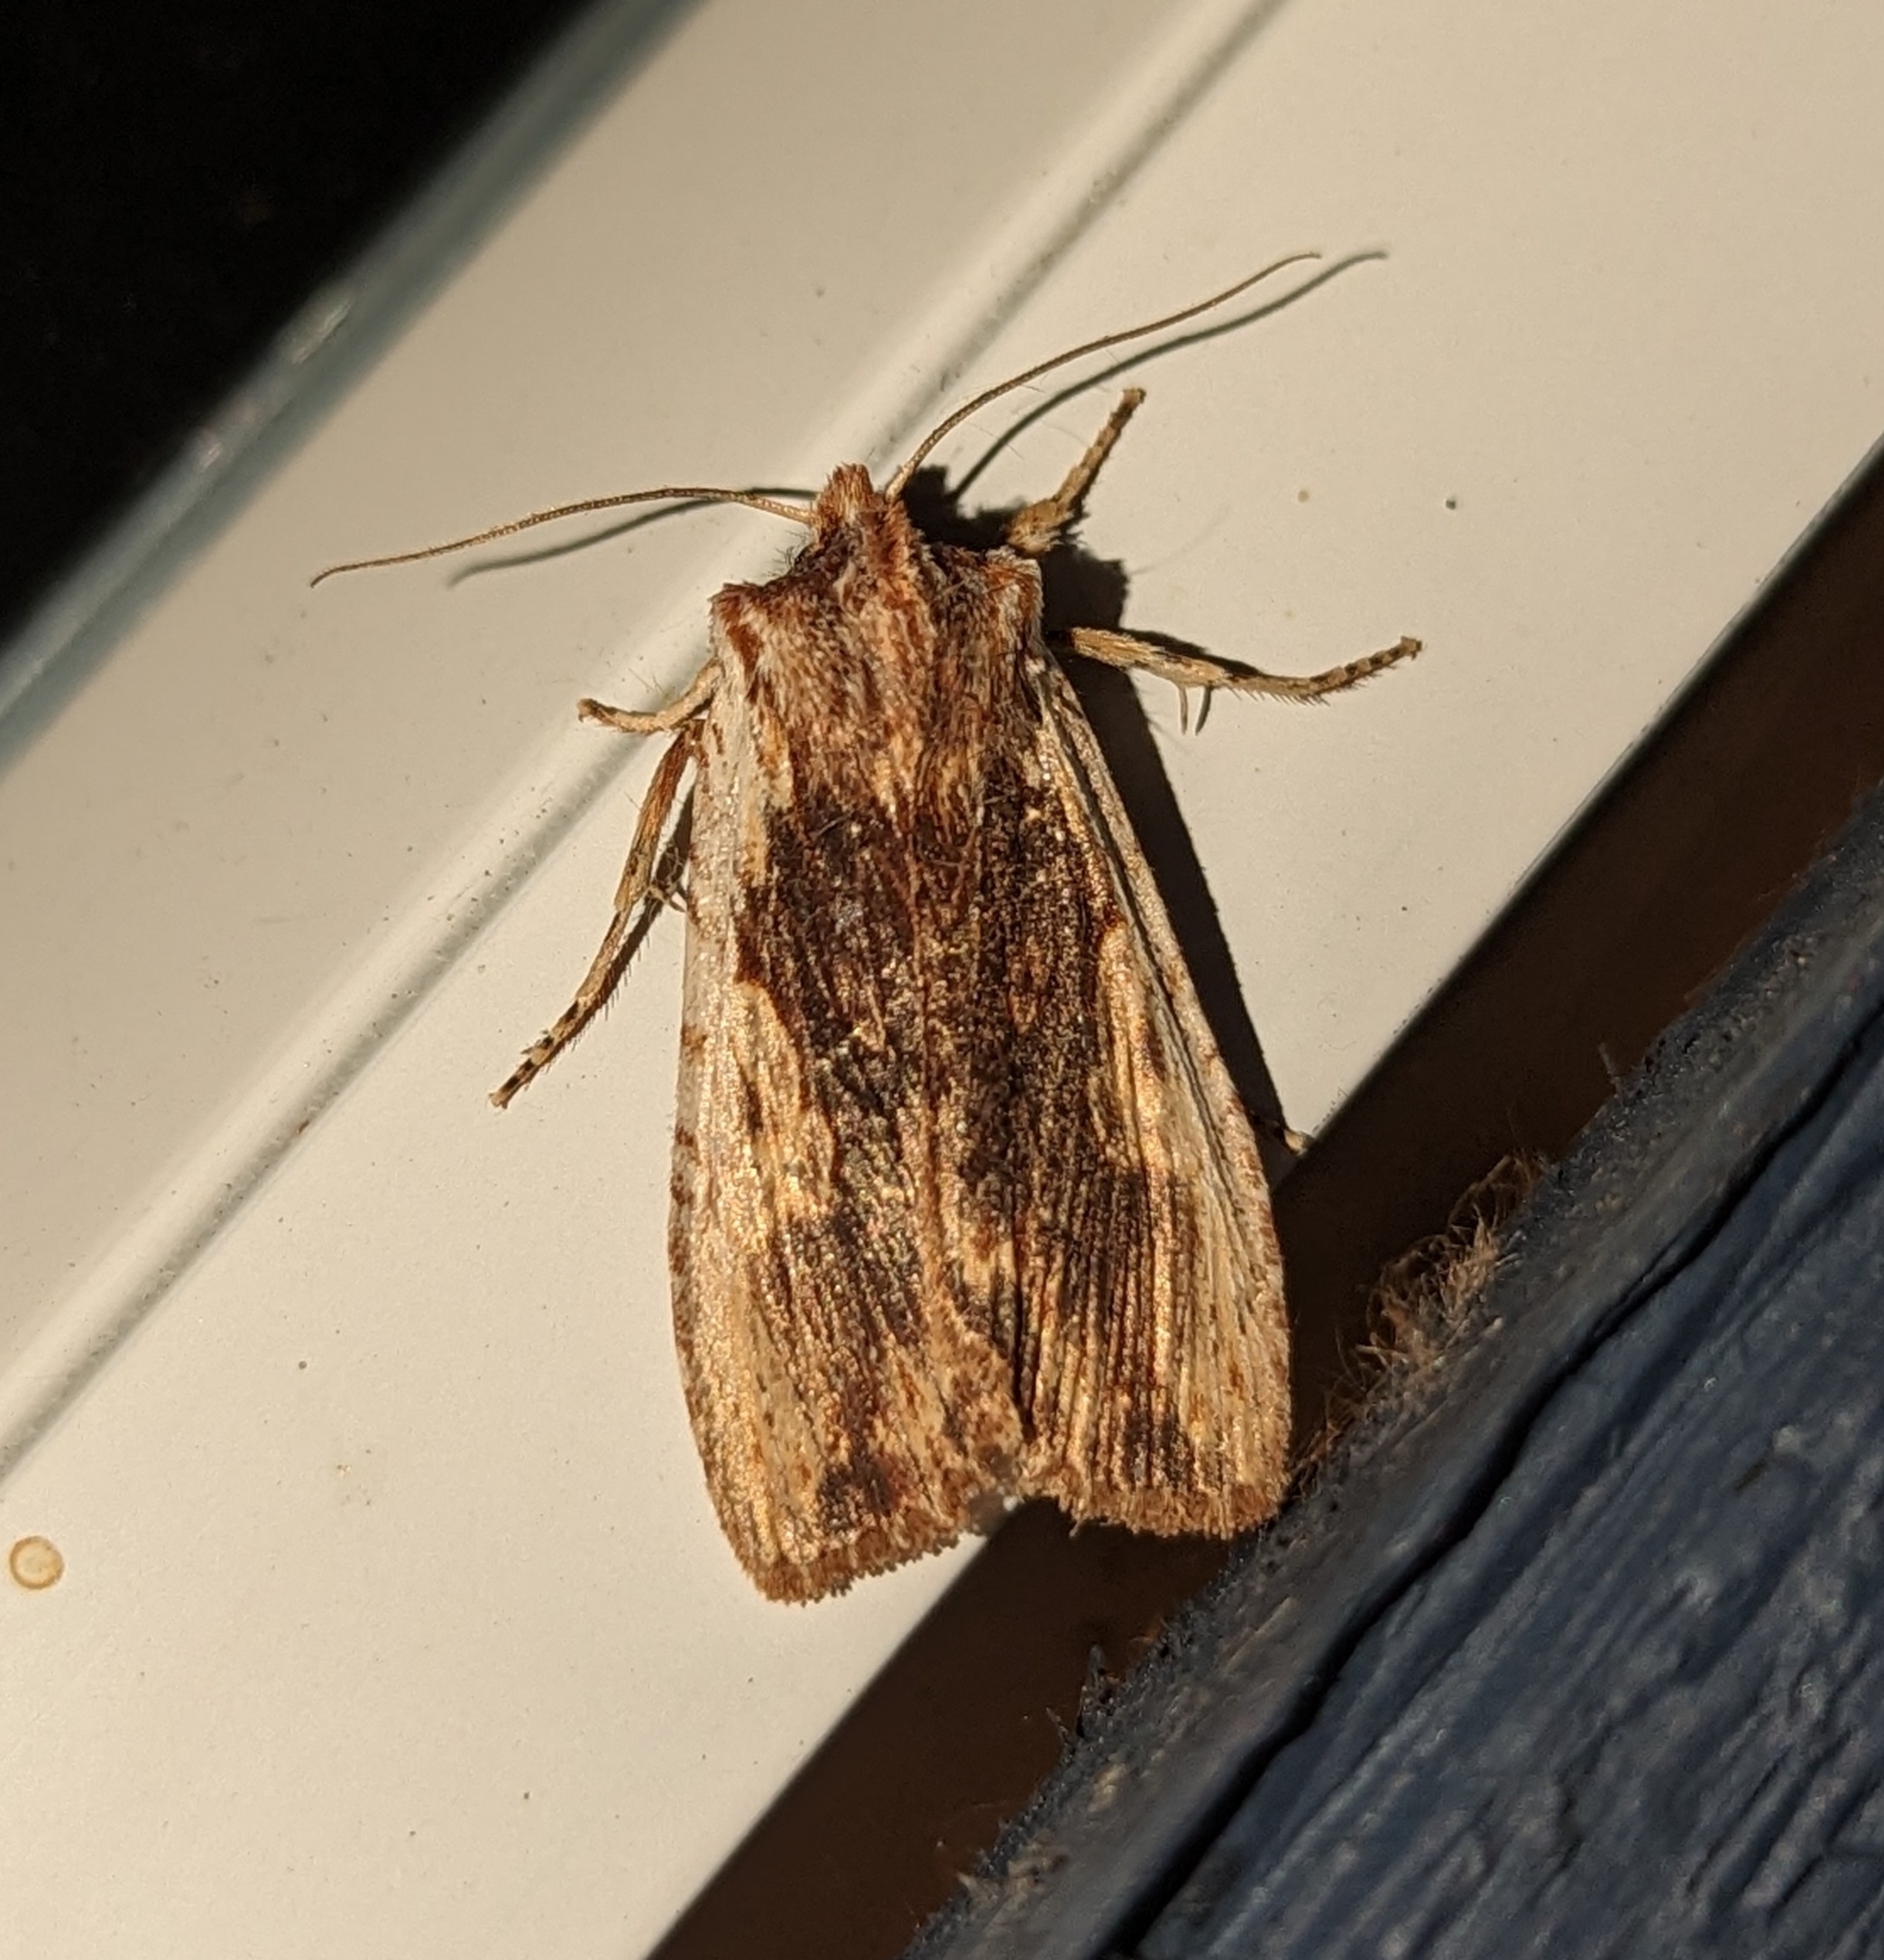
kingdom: Animalia
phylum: Arthropoda
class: Insecta
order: Lepidoptera
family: Noctuidae
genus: Lithophane
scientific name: Lithophane petulca
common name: Wanton pinion
